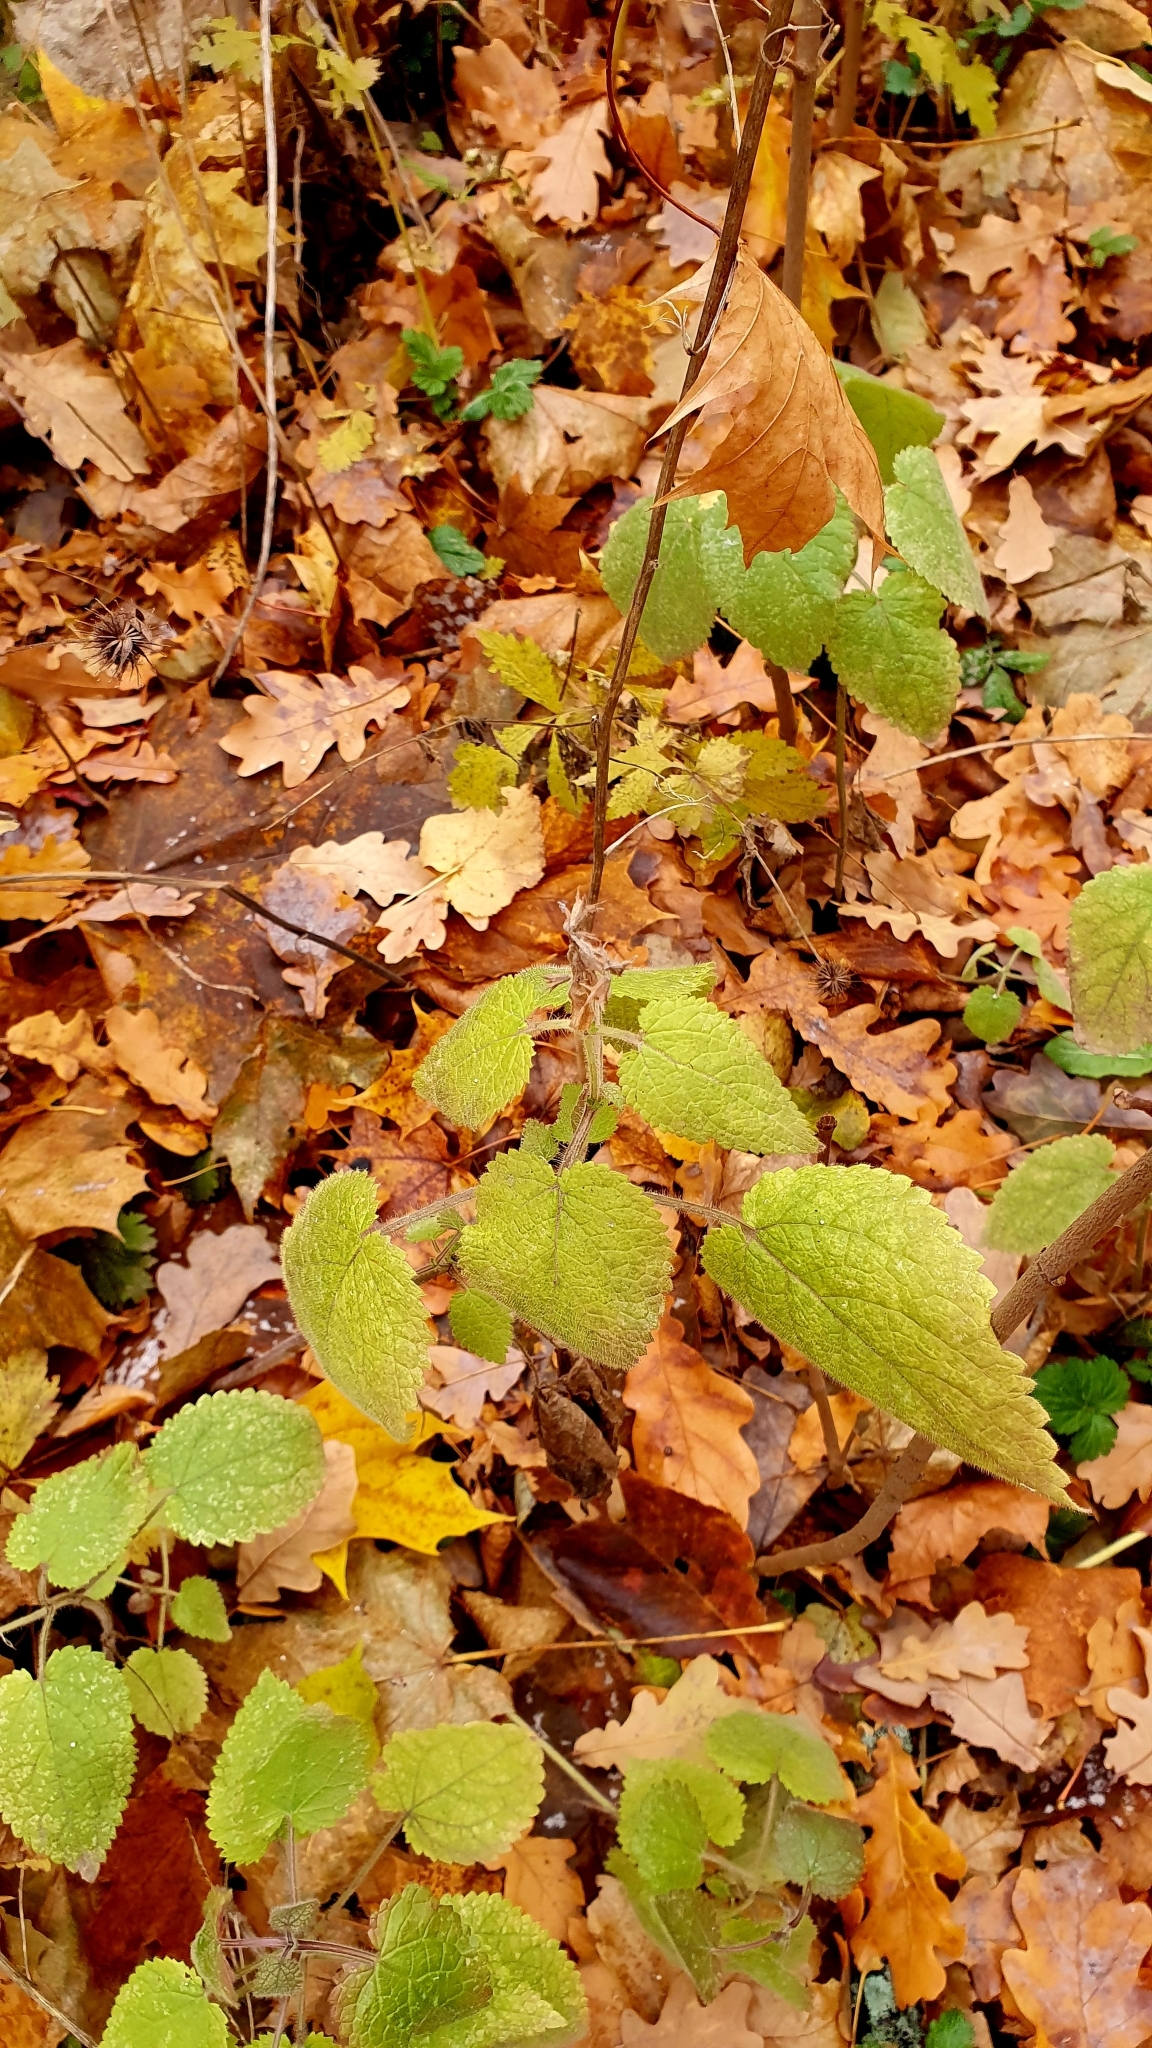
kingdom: Plantae
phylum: Tracheophyta
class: Magnoliopsida
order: Lamiales
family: Lamiaceae
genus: Stachys
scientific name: Stachys sylvatica
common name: Hedge woundwort
